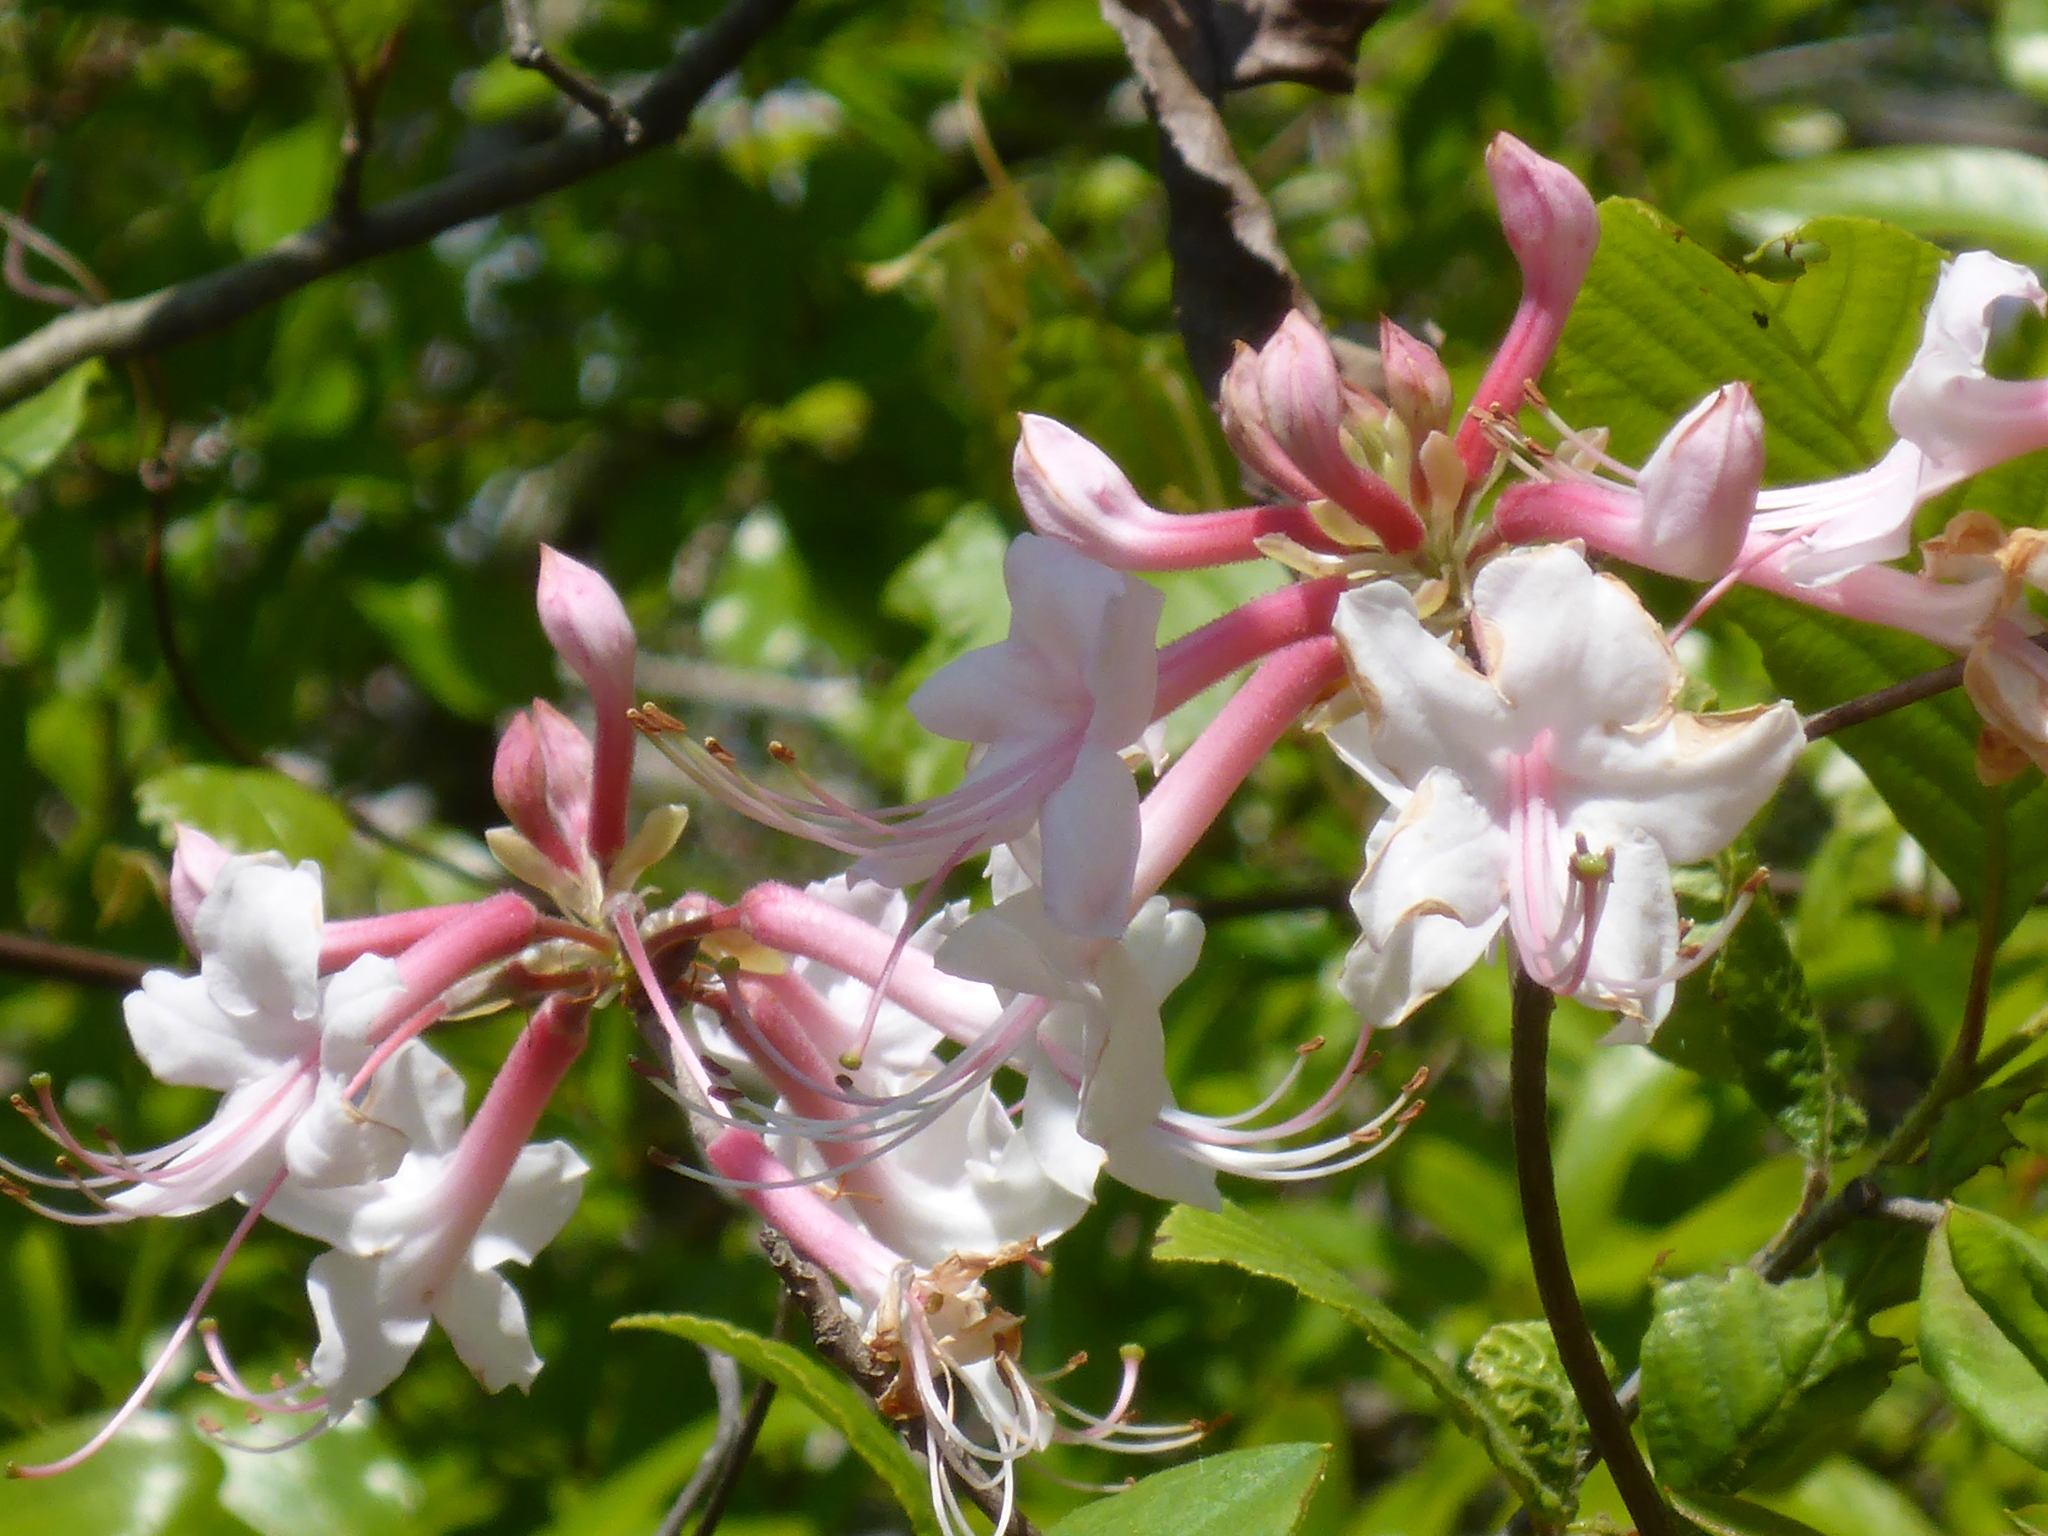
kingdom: Plantae
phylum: Tracheophyta
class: Magnoliopsida
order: Ericales
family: Ericaceae
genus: Rhododendron
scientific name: Rhododendron canescens
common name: Mountain azalea
